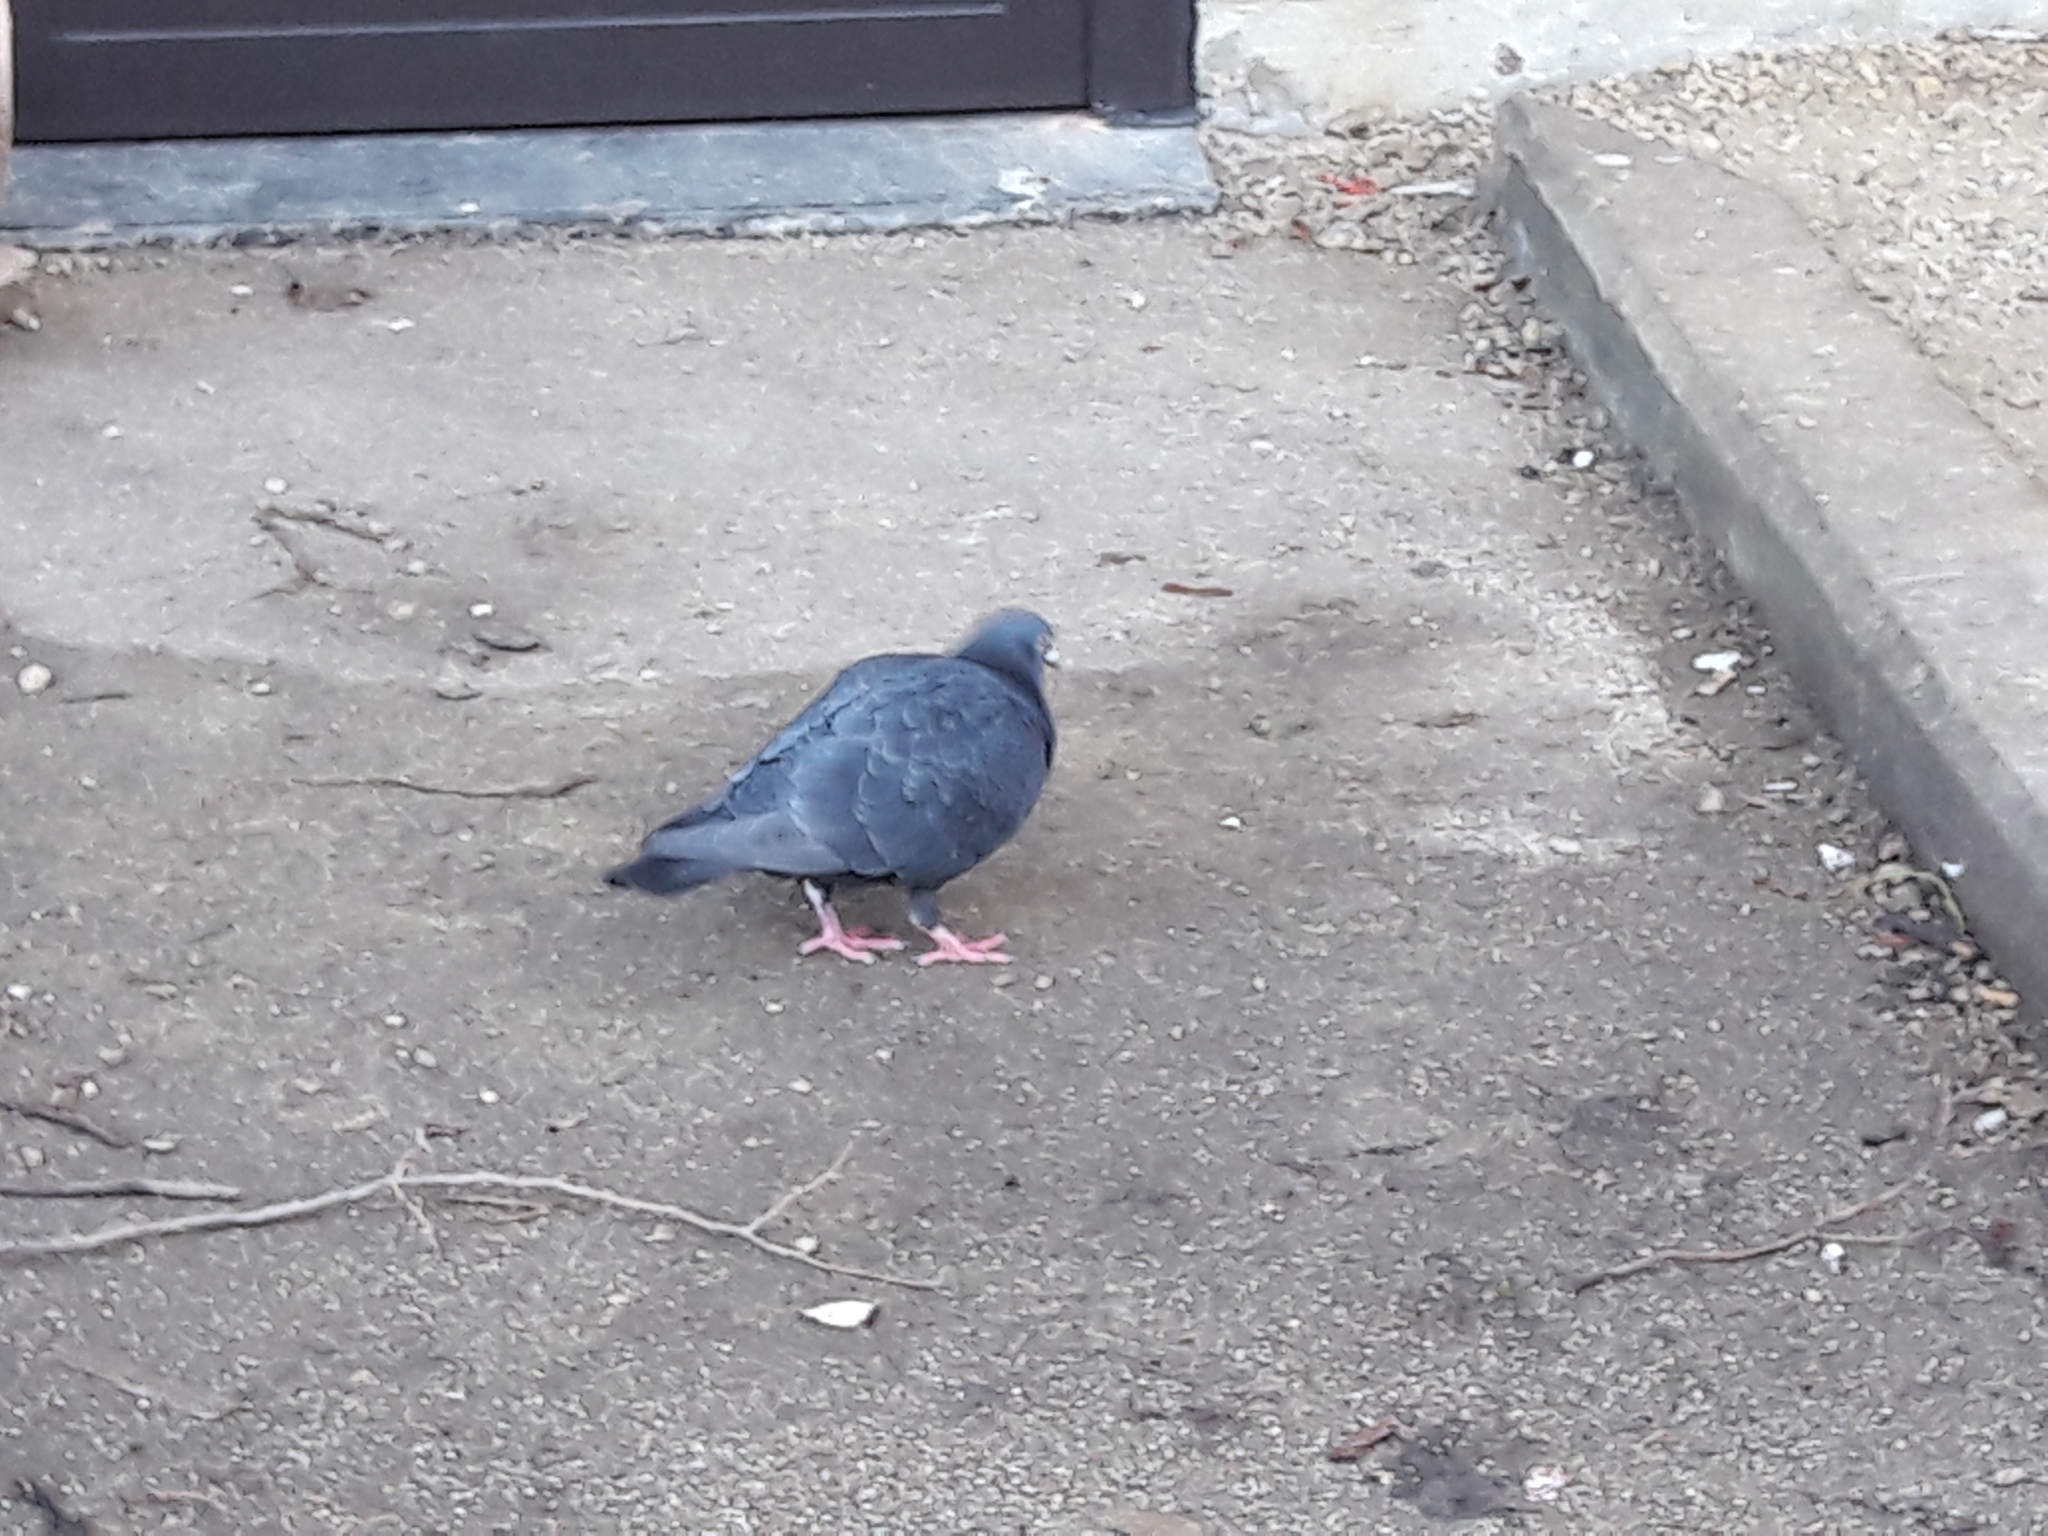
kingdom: Animalia
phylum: Chordata
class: Aves
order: Columbiformes
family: Columbidae
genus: Columba
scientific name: Columba livia
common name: Rock pigeon
